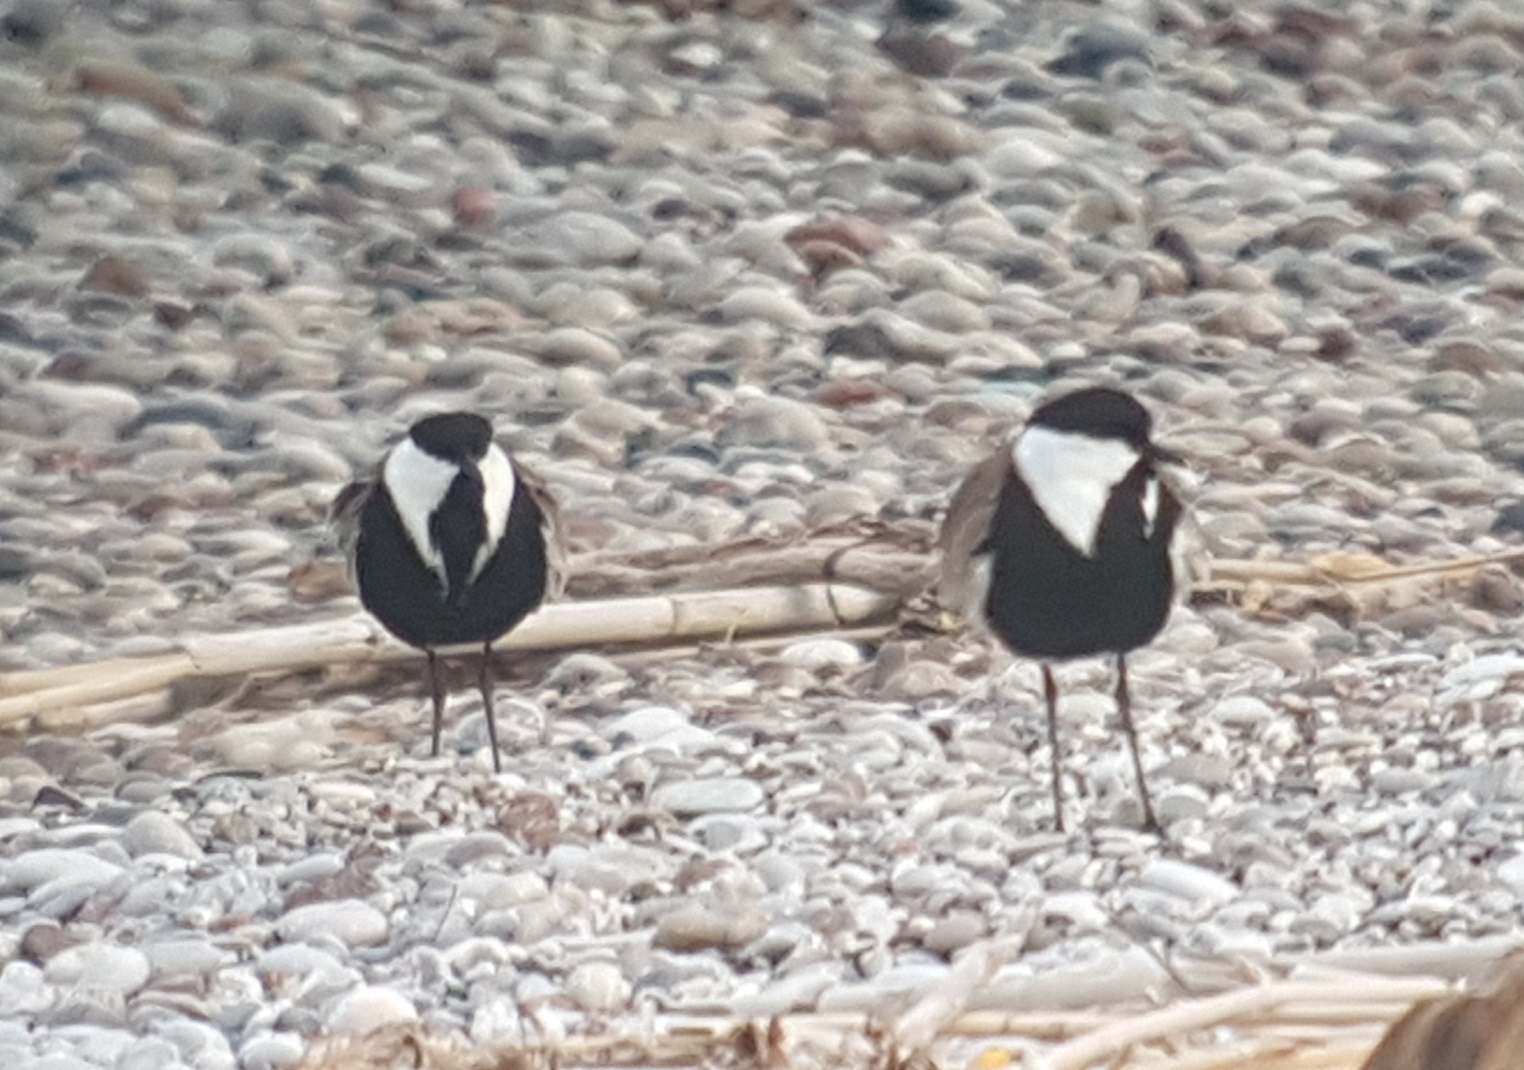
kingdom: Animalia
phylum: Chordata
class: Aves
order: Charadriiformes
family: Charadriidae
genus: Vanellus
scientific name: Vanellus spinosus
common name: Spur-winged lapwing
